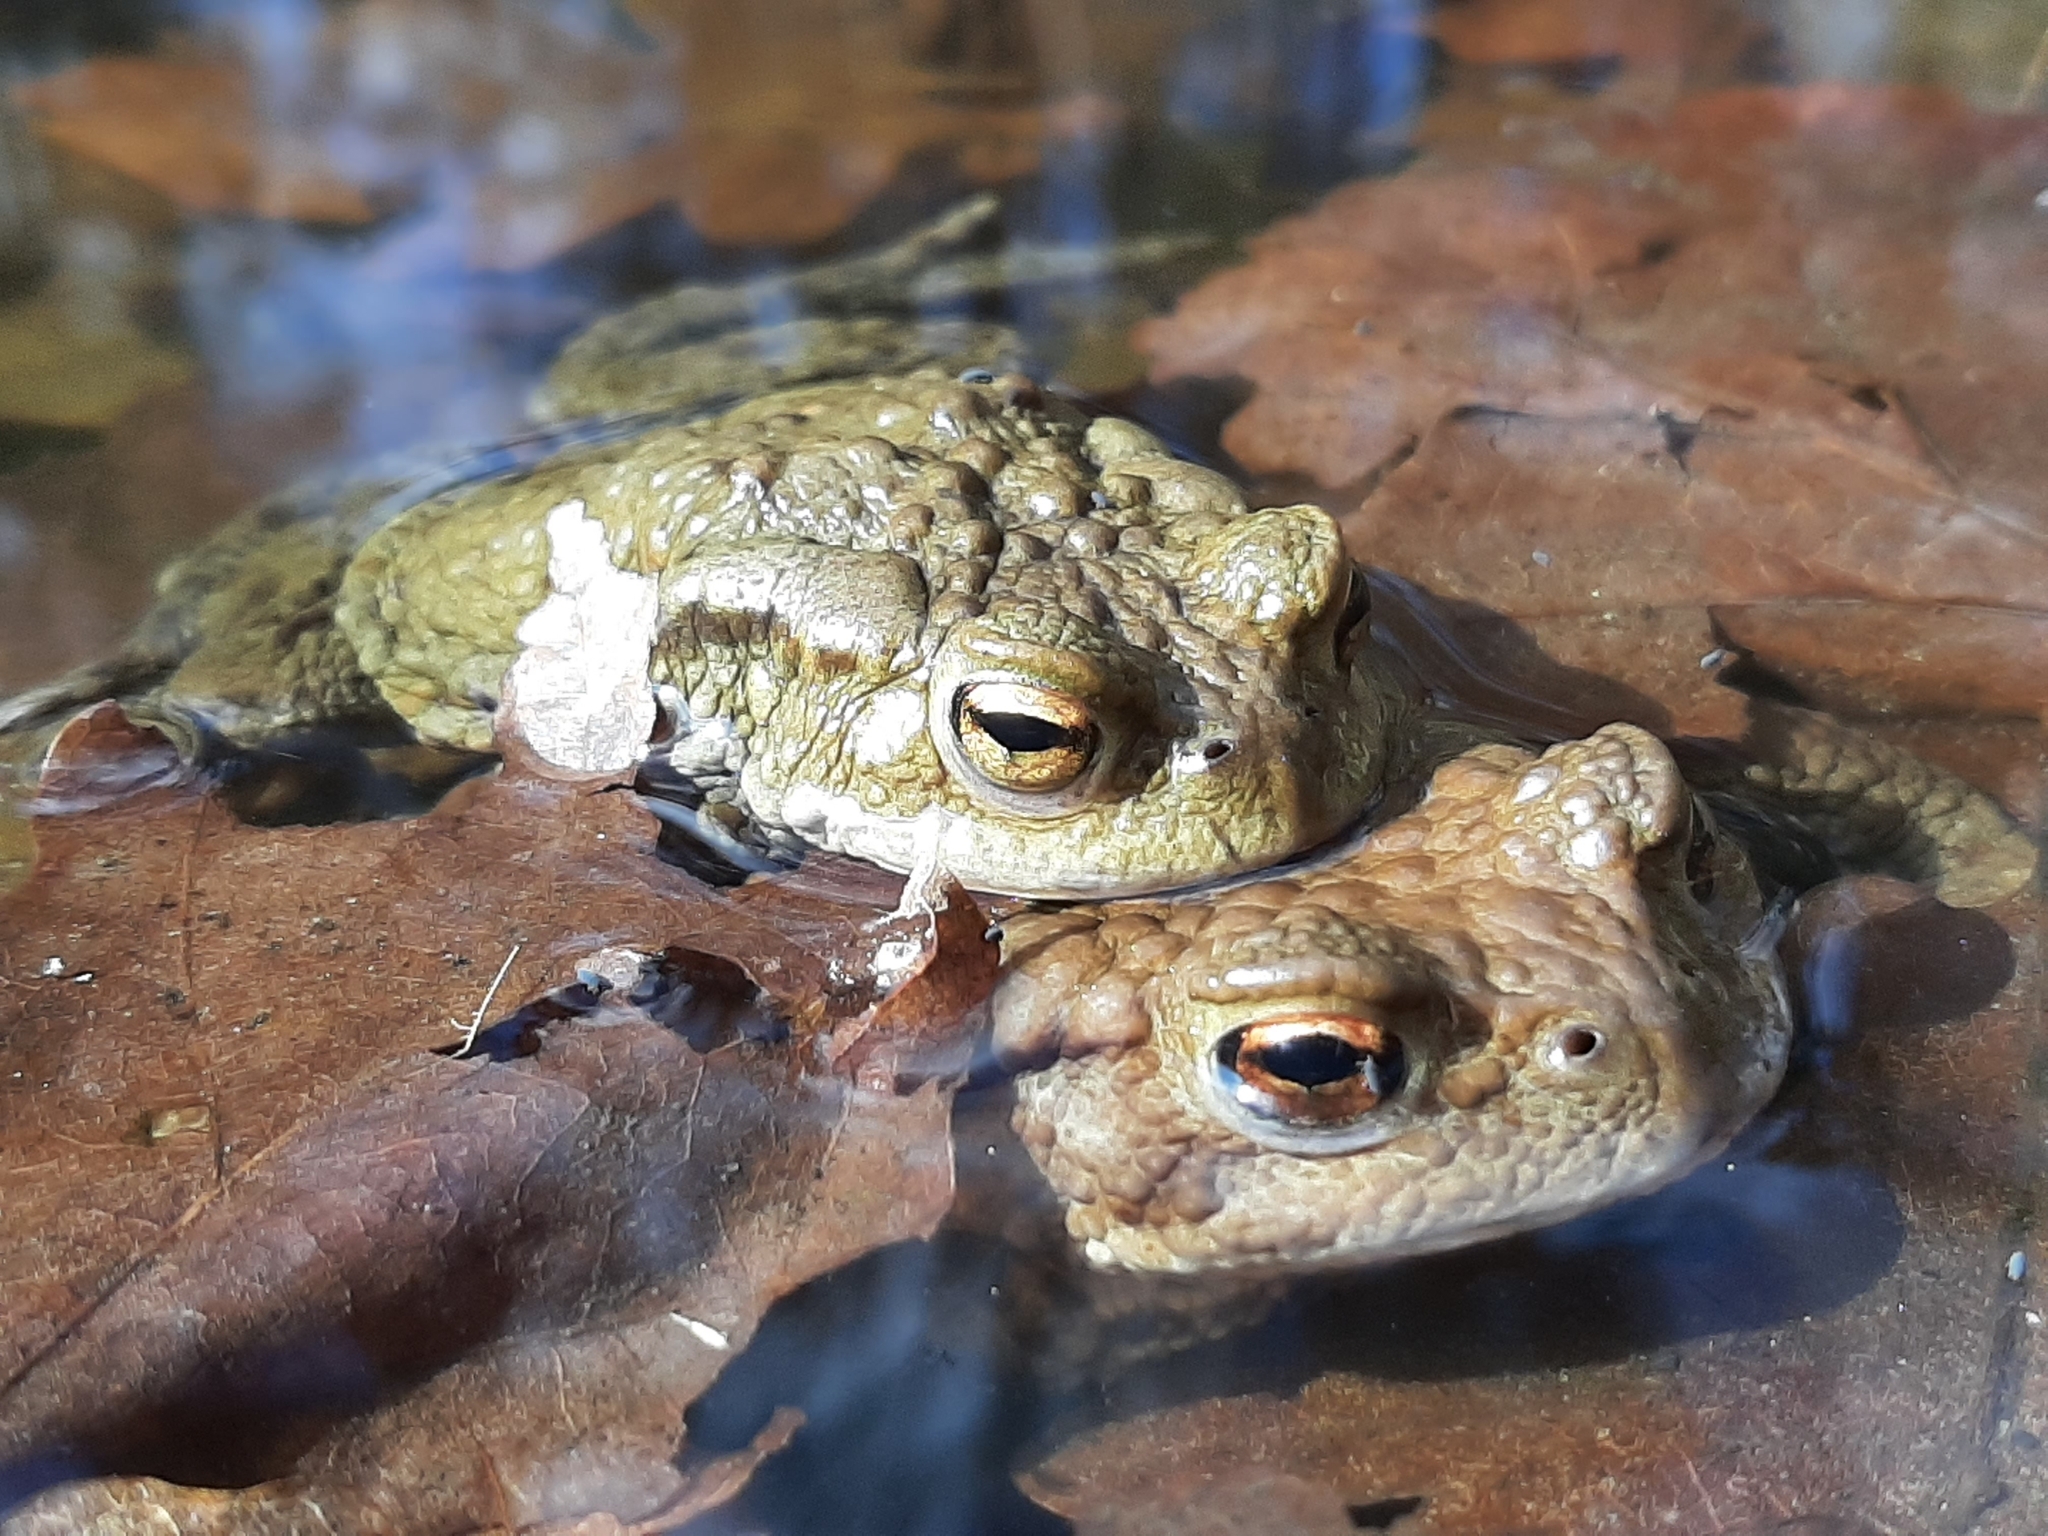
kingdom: Animalia
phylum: Chordata
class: Amphibia
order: Anura
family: Bufonidae
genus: Bufo
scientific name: Bufo bufo
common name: Common toad
